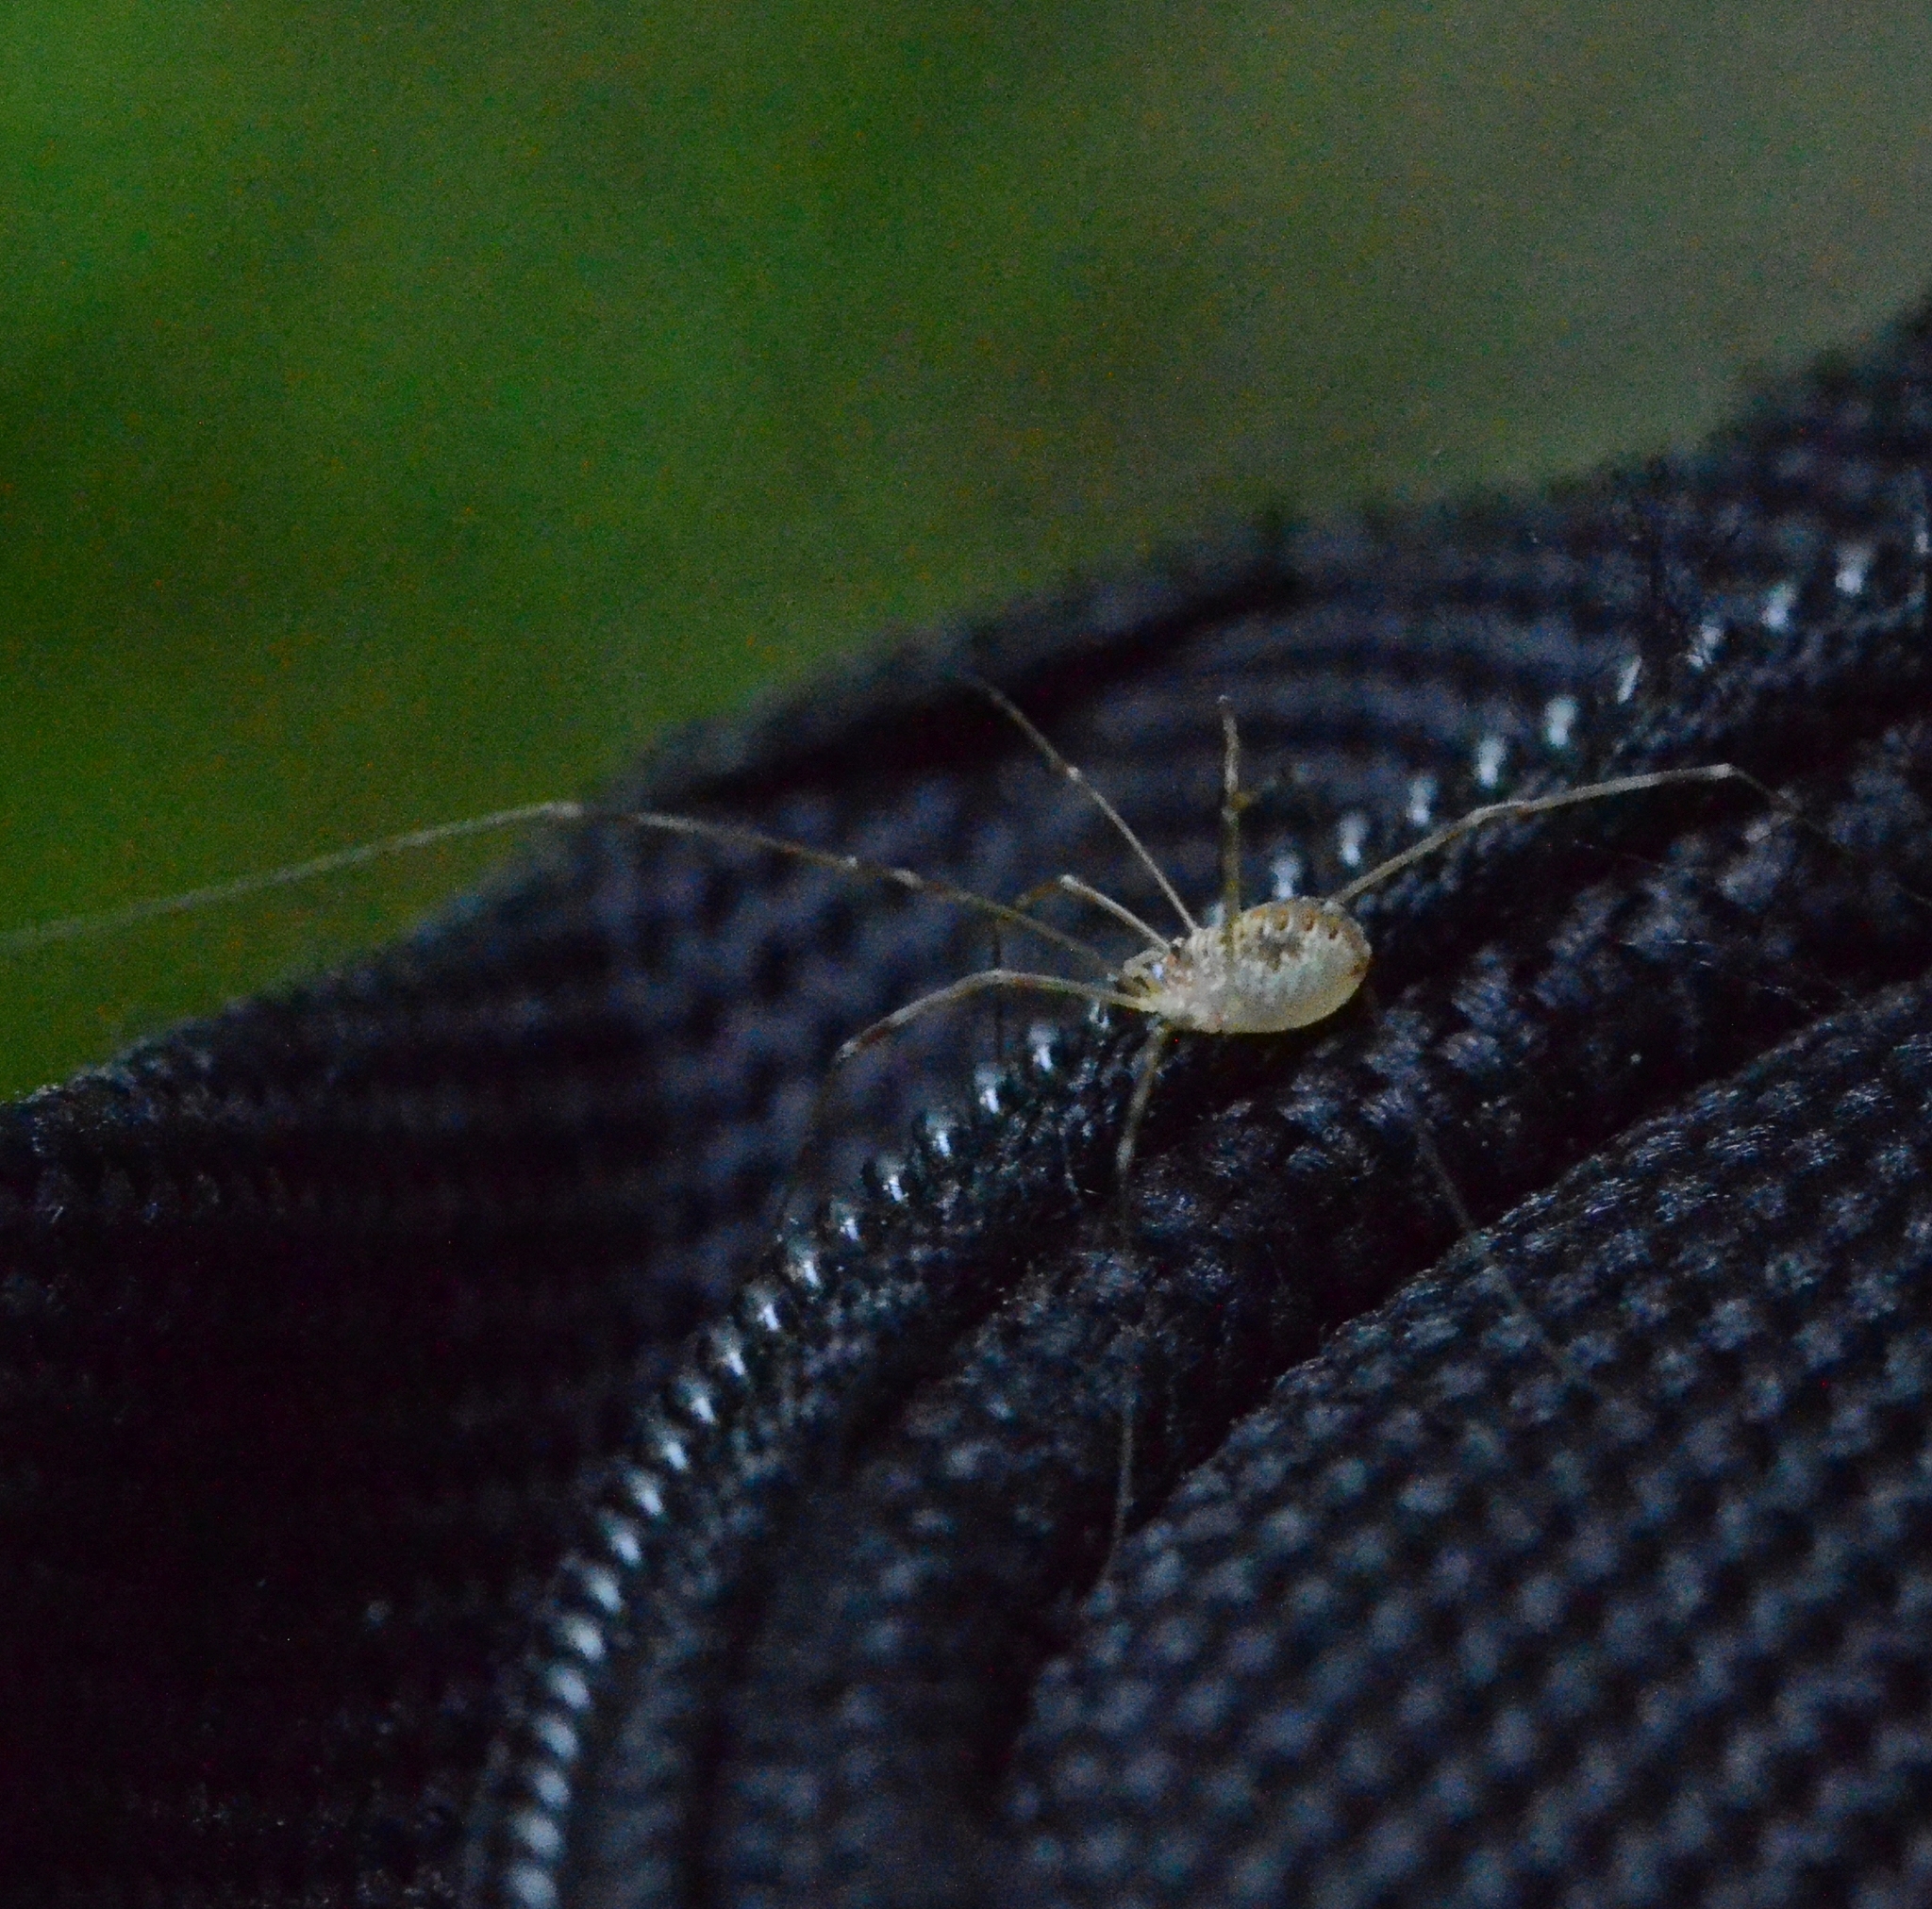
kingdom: Animalia
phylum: Arthropoda
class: Arachnida
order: Opiliones
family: Phalangiidae
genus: Opilio
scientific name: Opilio canestrinii
